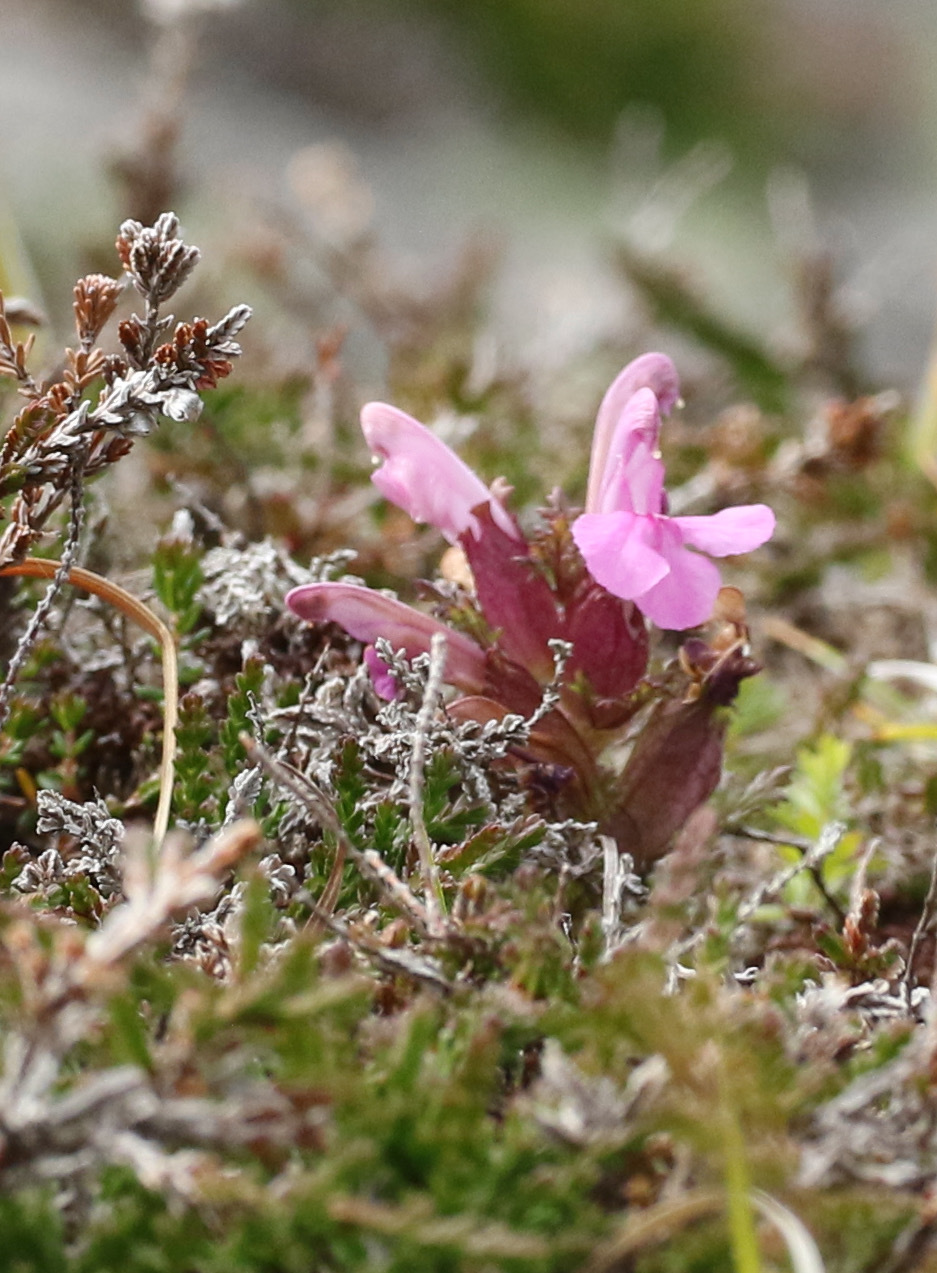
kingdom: Plantae
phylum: Tracheophyta
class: Magnoliopsida
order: Lamiales
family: Orobanchaceae
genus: Pedicularis
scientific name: Pedicularis sylvatica
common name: Lousewort
